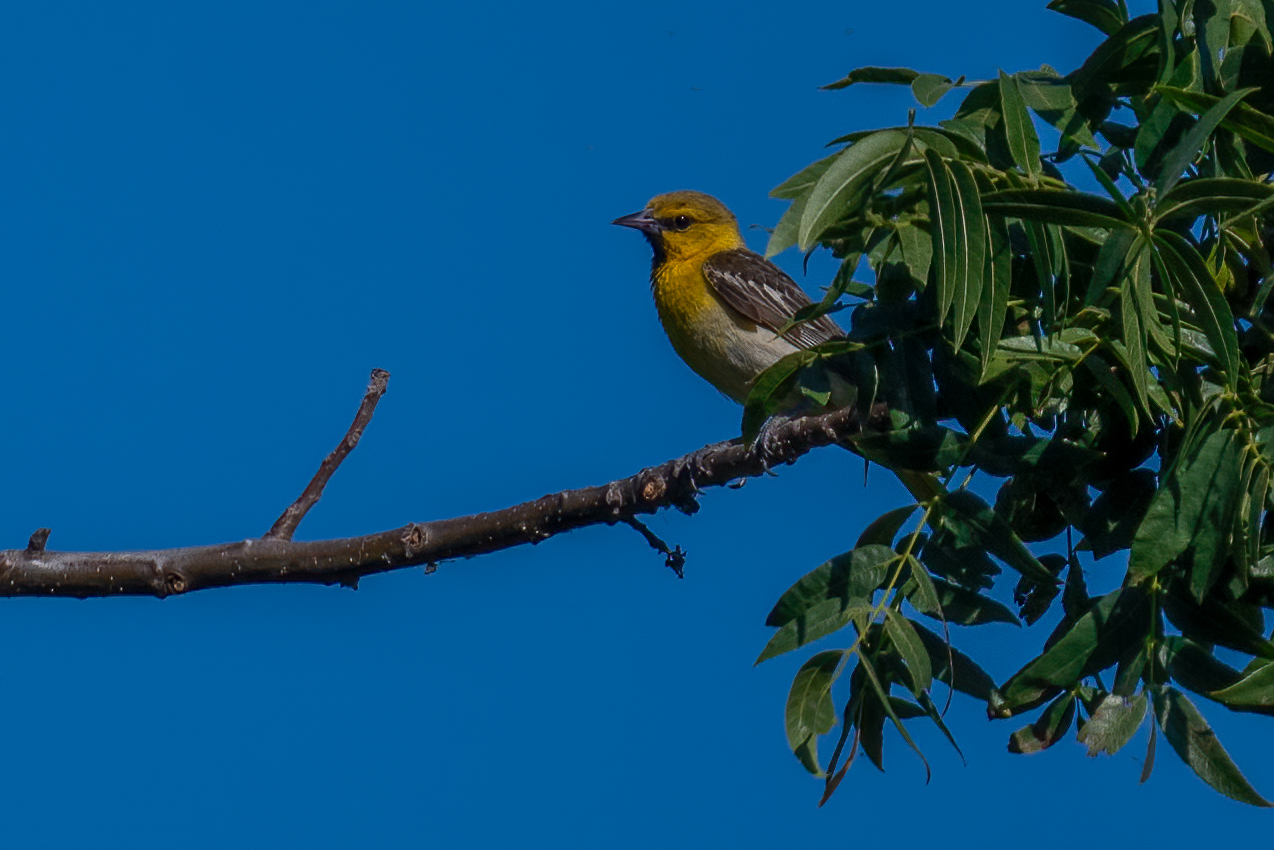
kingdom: Animalia
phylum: Chordata
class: Aves
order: Passeriformes
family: Icteridae
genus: Icterus
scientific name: Icterus bullockii
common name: Bullock's oriole
